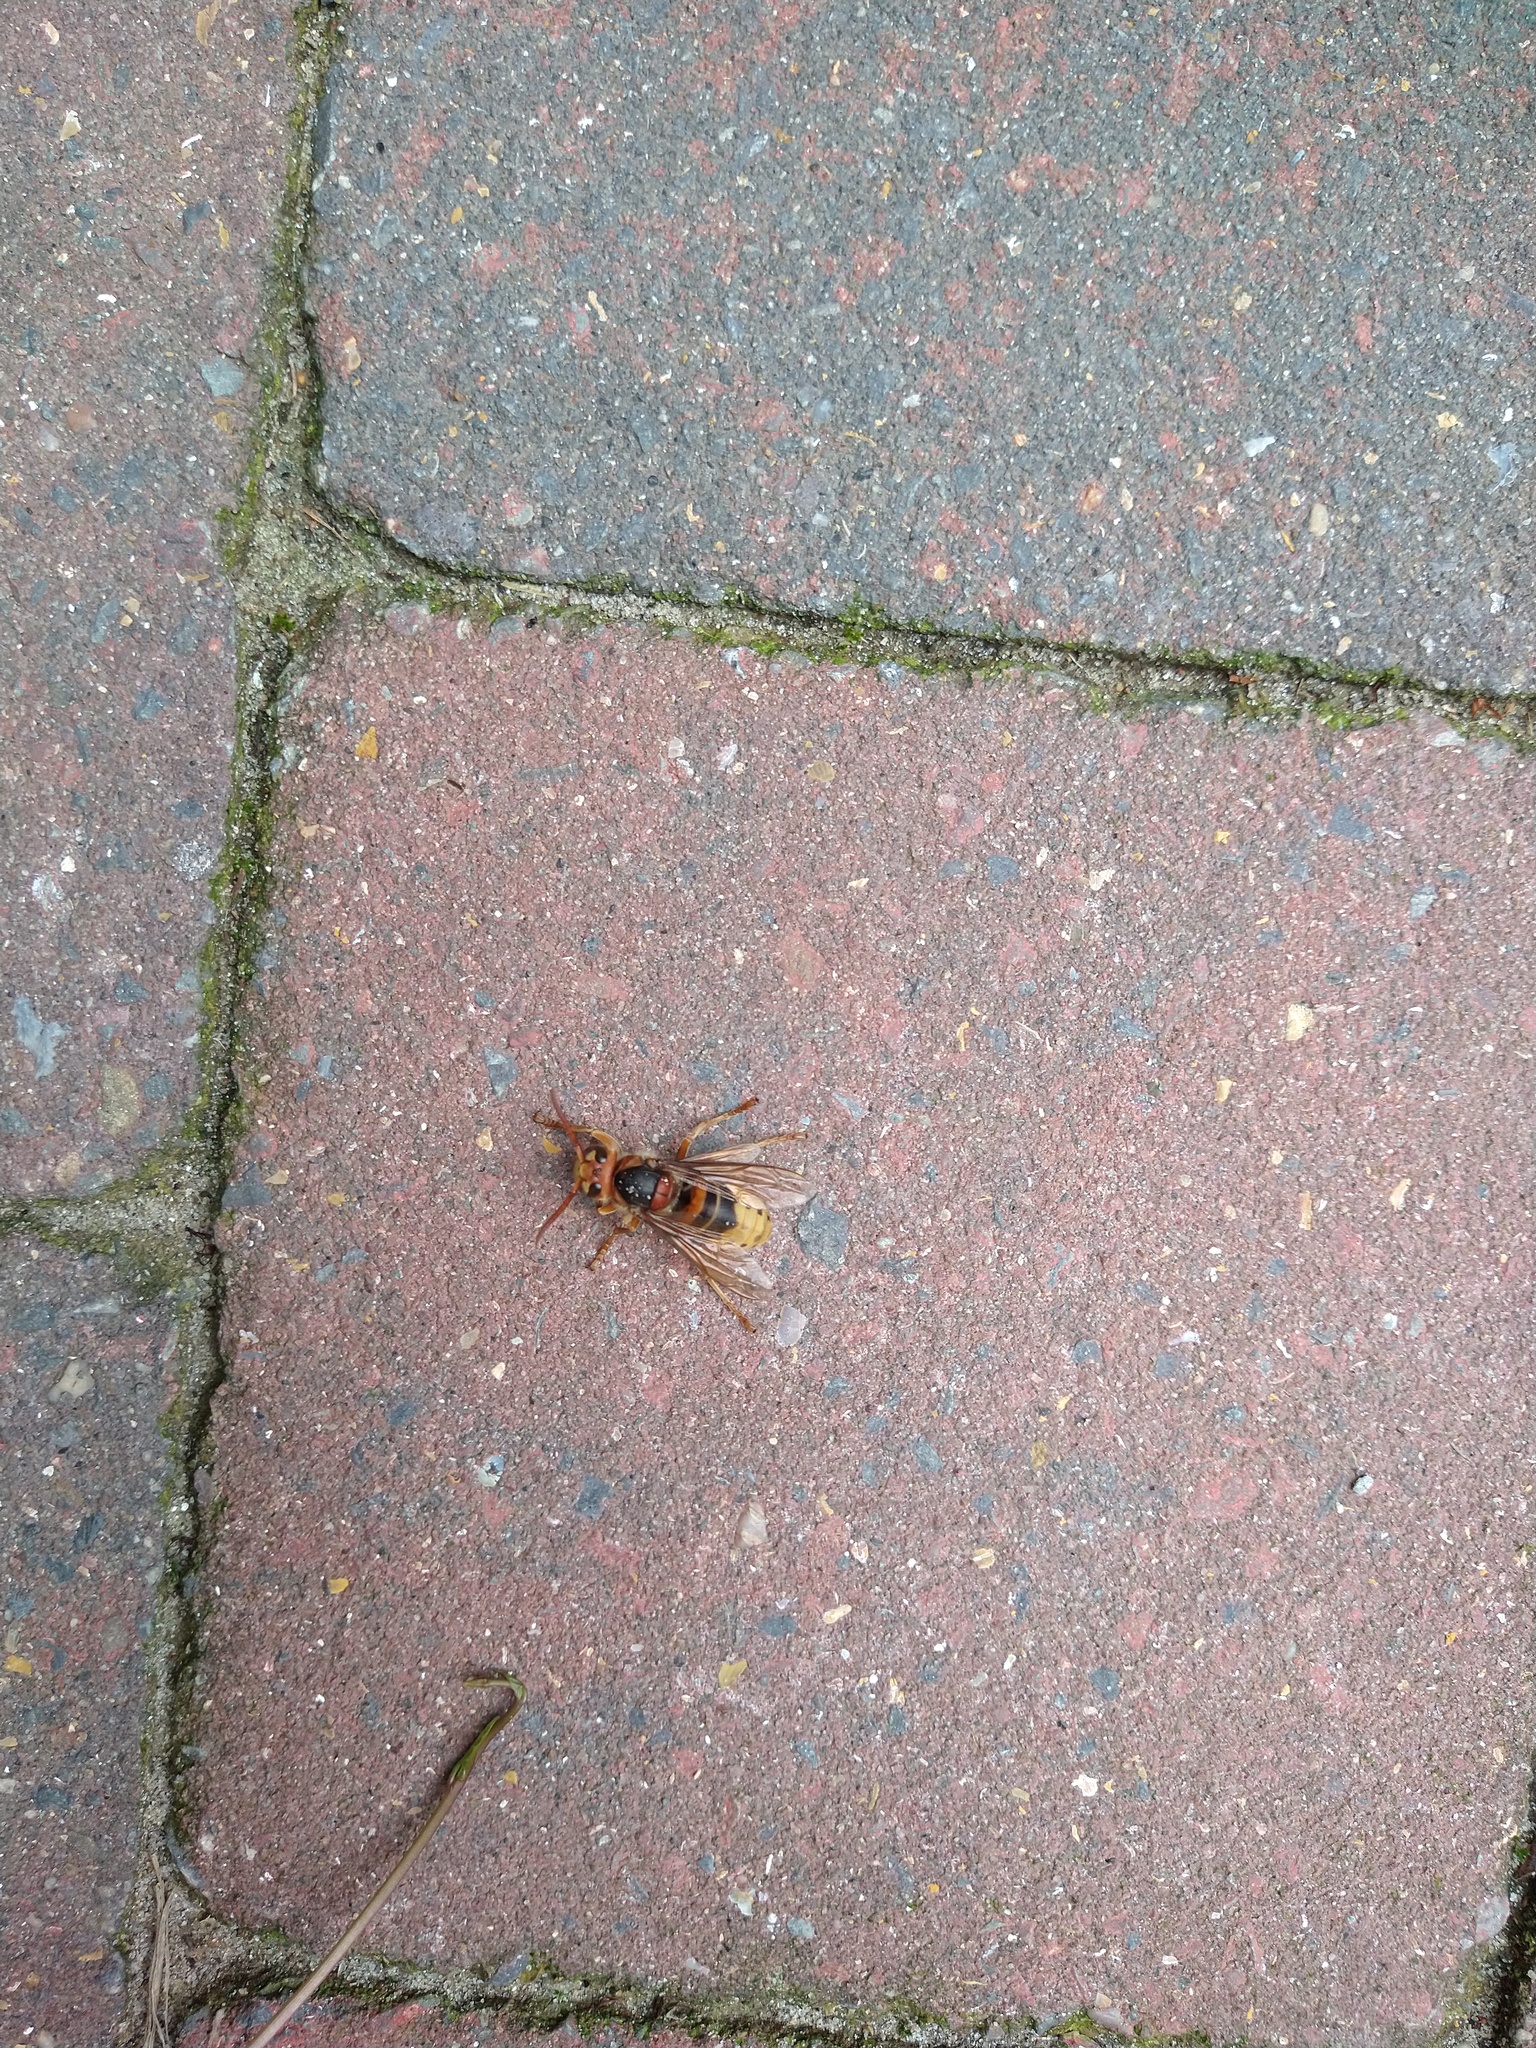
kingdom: Animalia
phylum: Arthropoda
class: Insecta
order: Hymenoptera
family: Vespidae
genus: Vespa
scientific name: Vespa crabro
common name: Hornet
